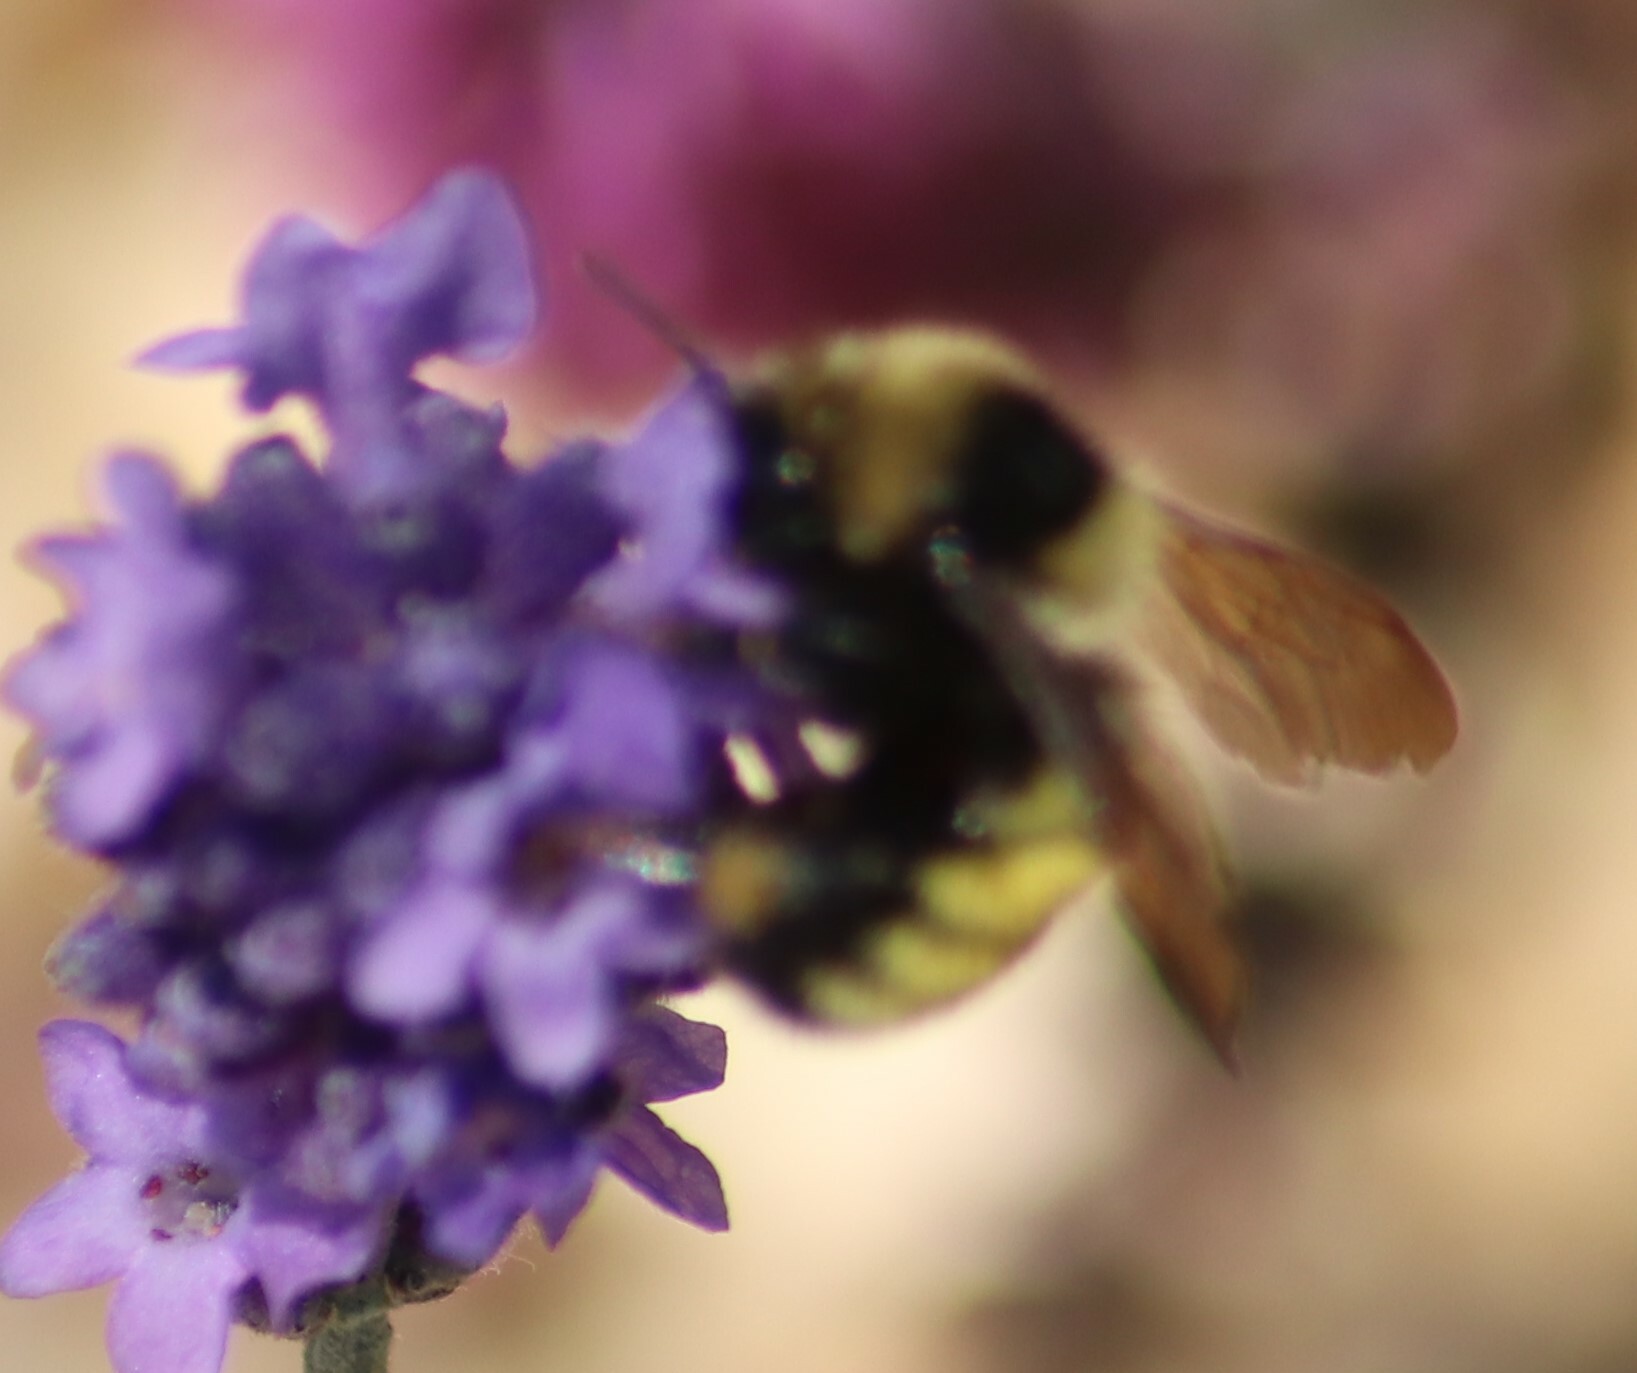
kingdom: Animalia
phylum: Arthropoda
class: Insecta
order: Hymenoptera
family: Apidae
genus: Bombus
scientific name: Bombus borealis
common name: Northern amber bumble bee
